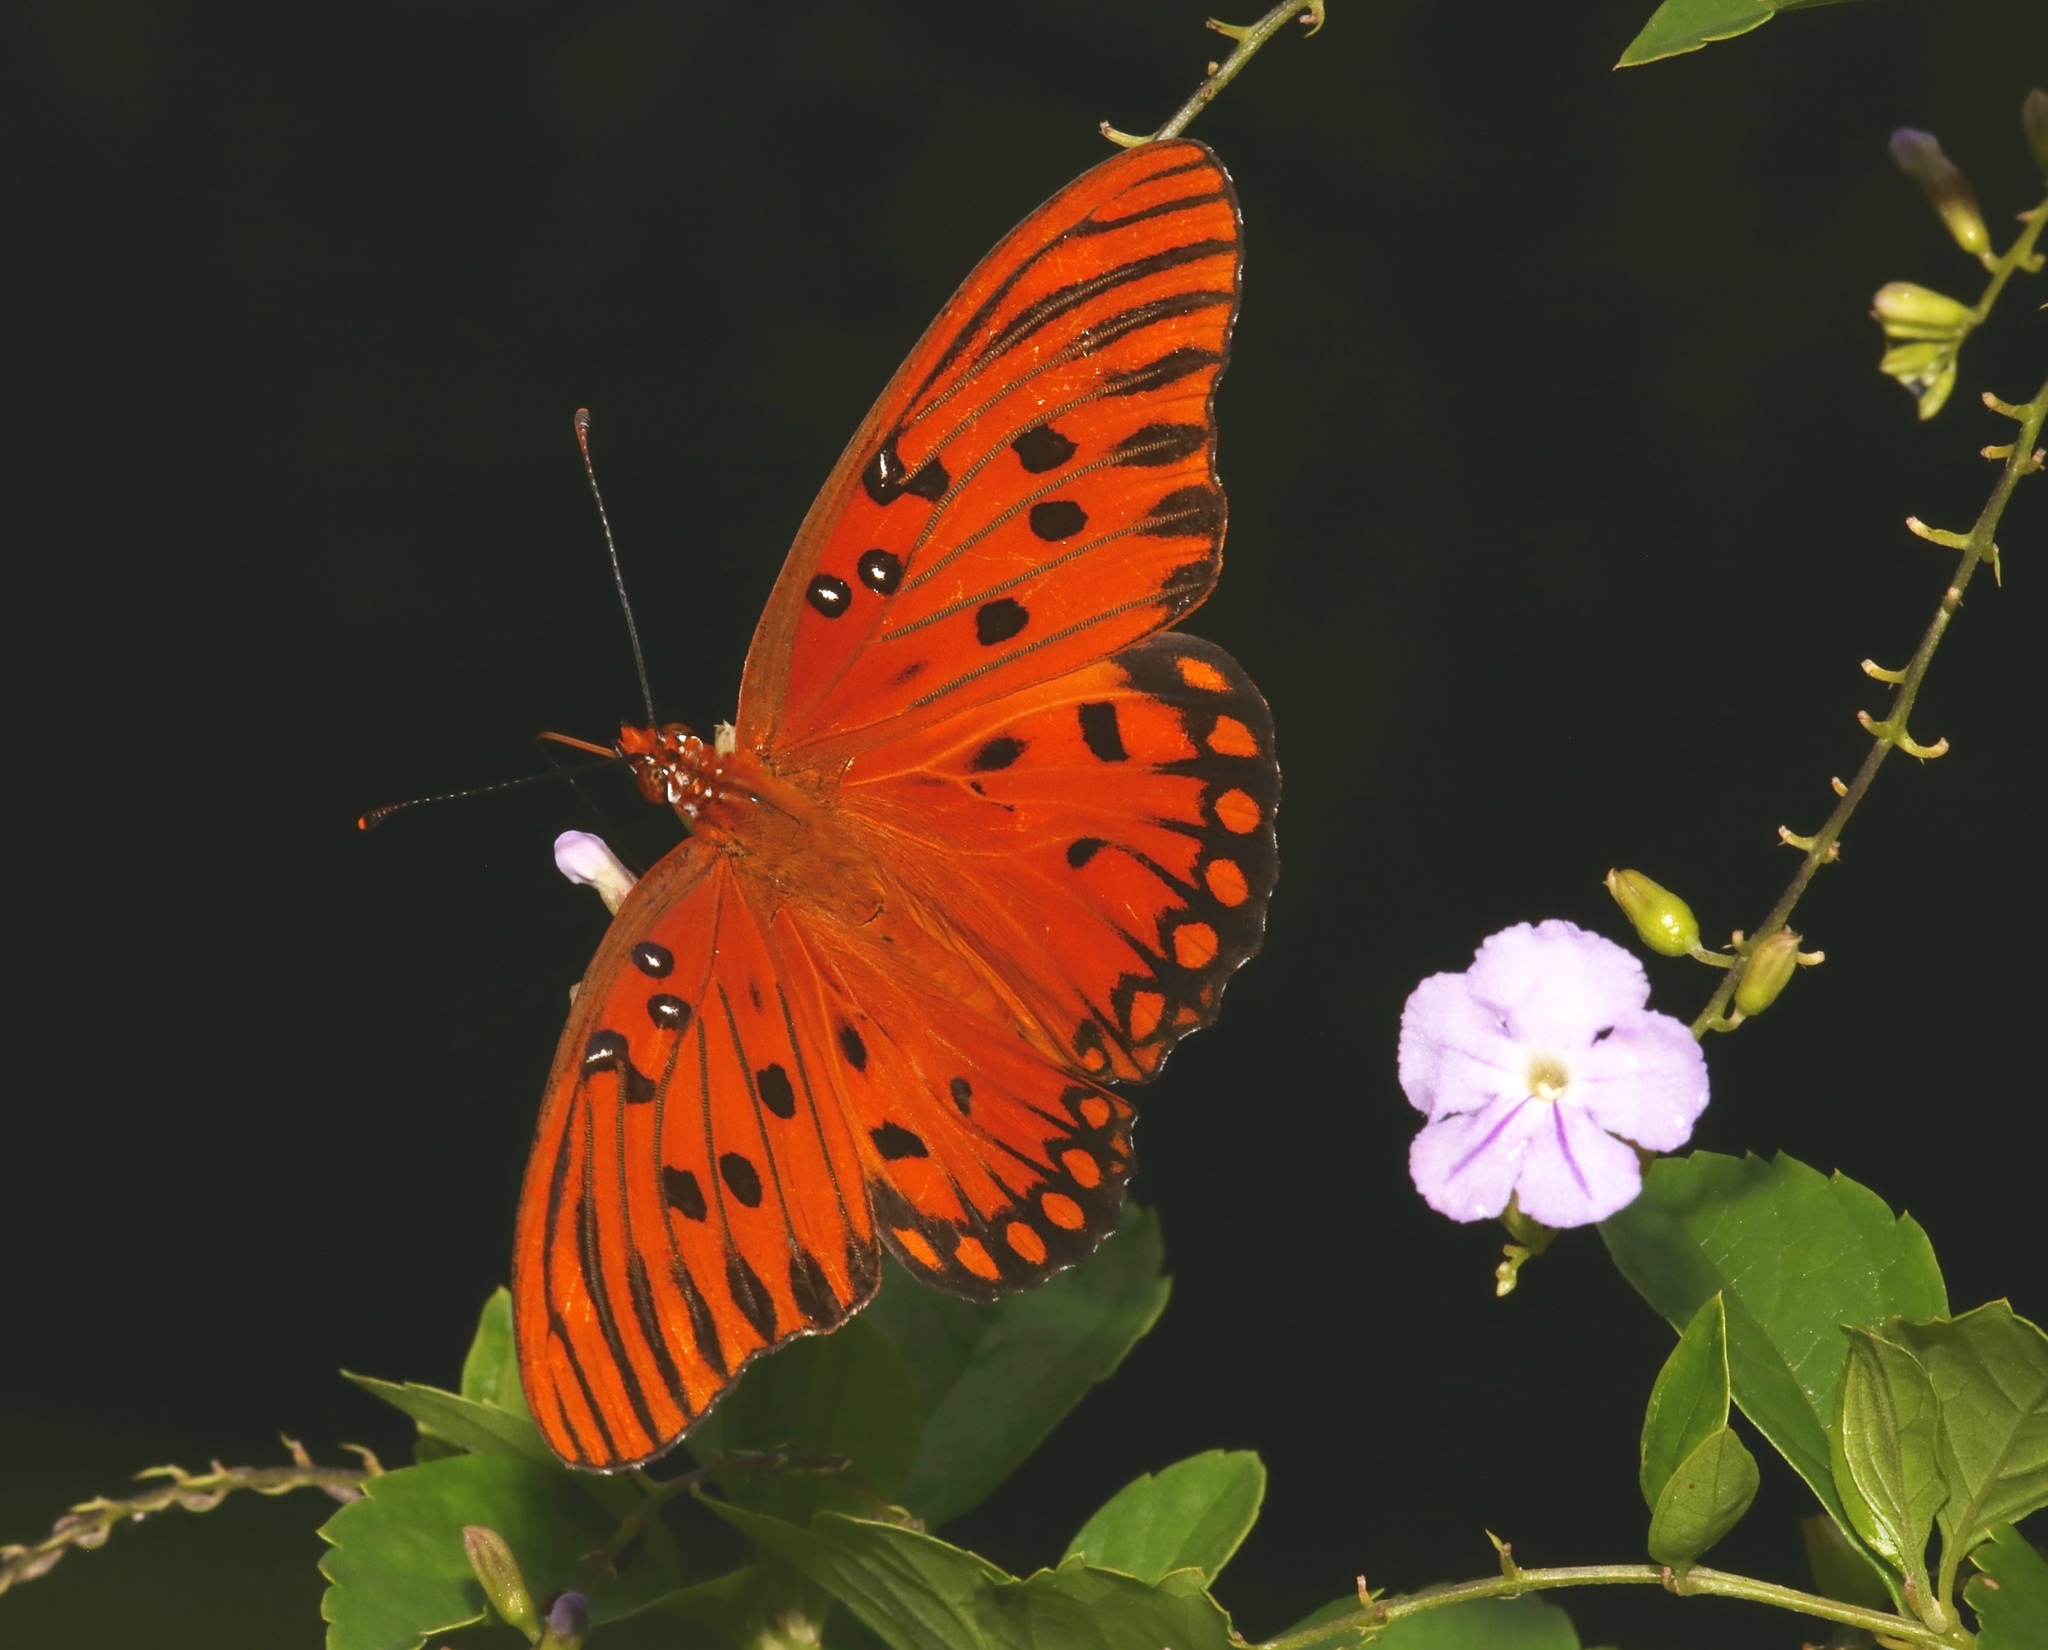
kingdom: Animalia
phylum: Arthropoda
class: Insecta
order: Lepidoptera
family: Nymphalidae
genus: Dione
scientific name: Dione vanillae
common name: Gulf fritillary
